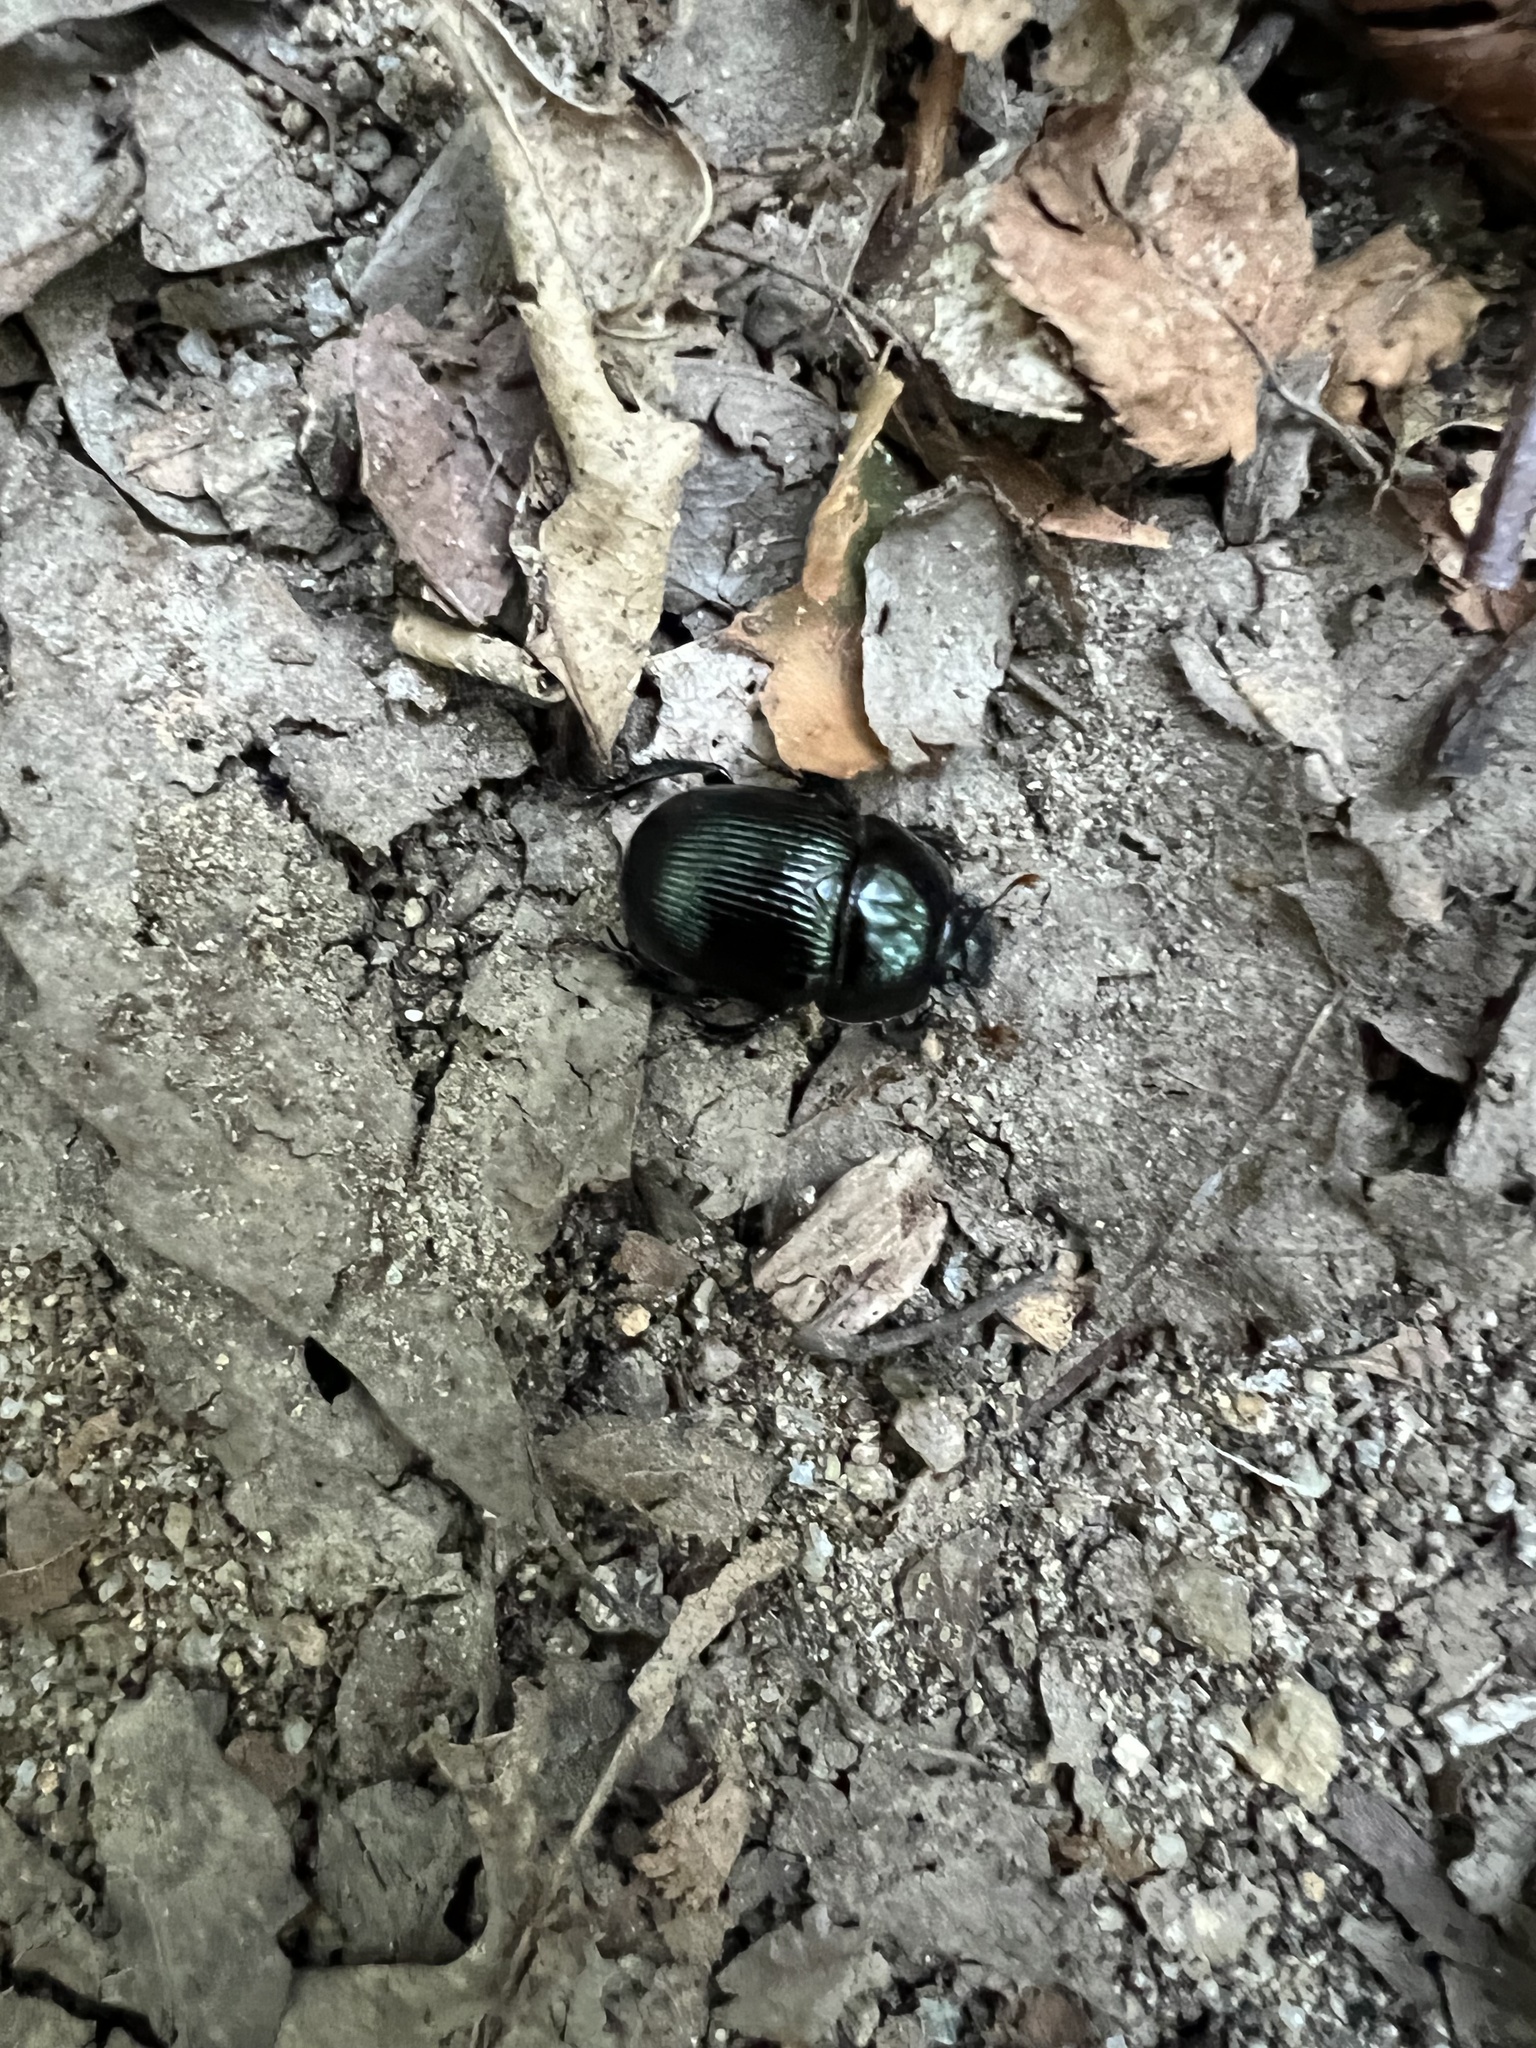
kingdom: Animalia
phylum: Arthropoda
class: Insecta
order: Coleoptera
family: Geotrupidae
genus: Anoplotrupes
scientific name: Anoplotrupes balyi
